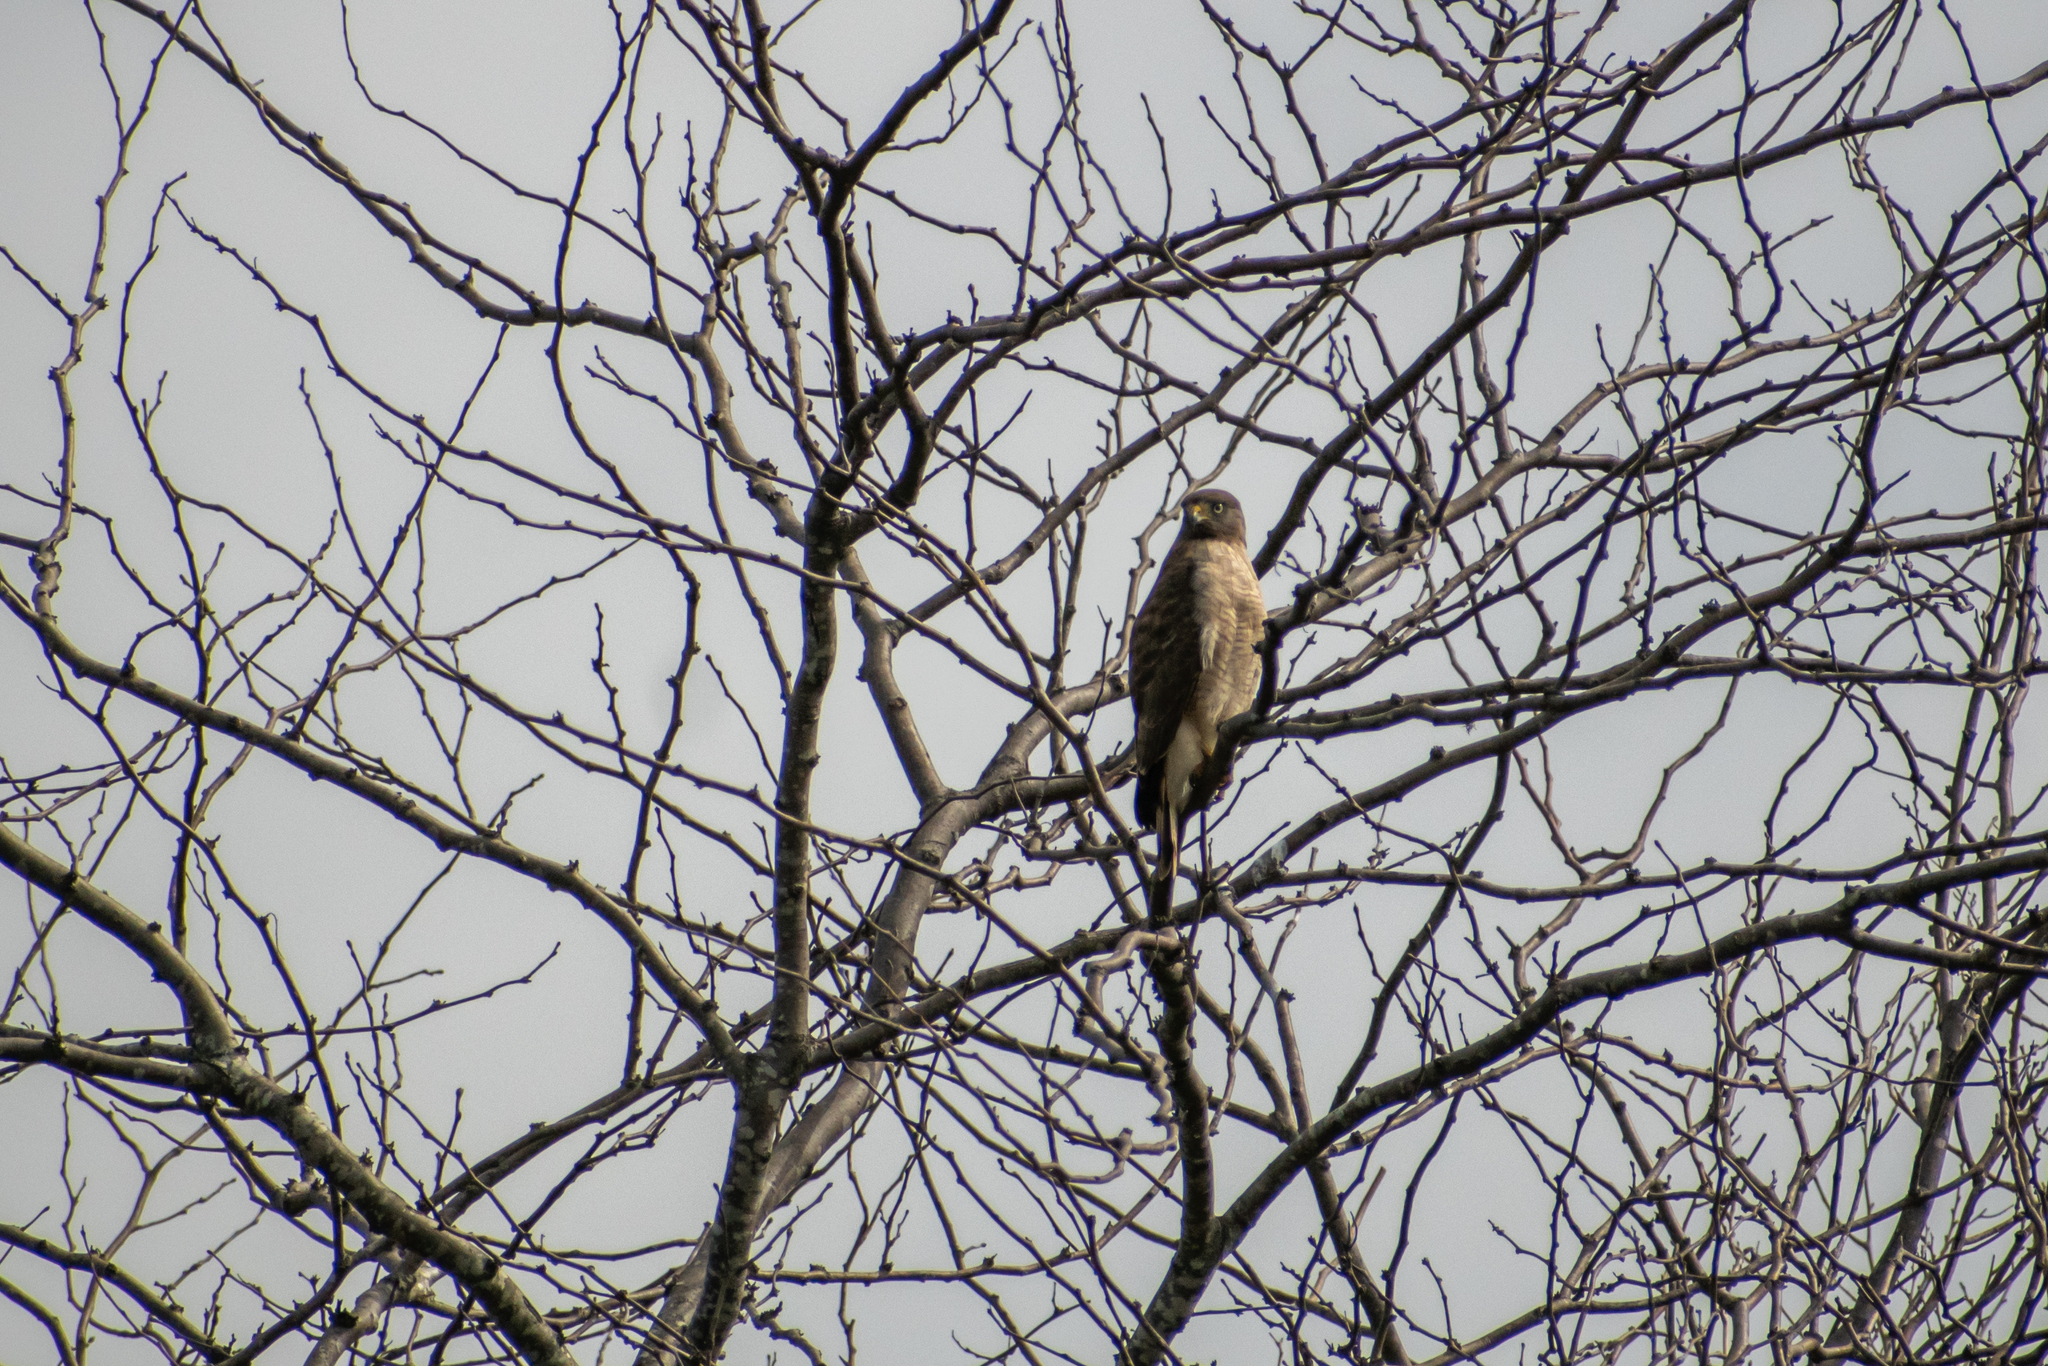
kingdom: Animalia
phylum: Chordata
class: Aves
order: Accipitriformes
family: Accipitridae
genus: Rupornis
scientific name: Rupornis magnirostris
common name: Roadside hawk
